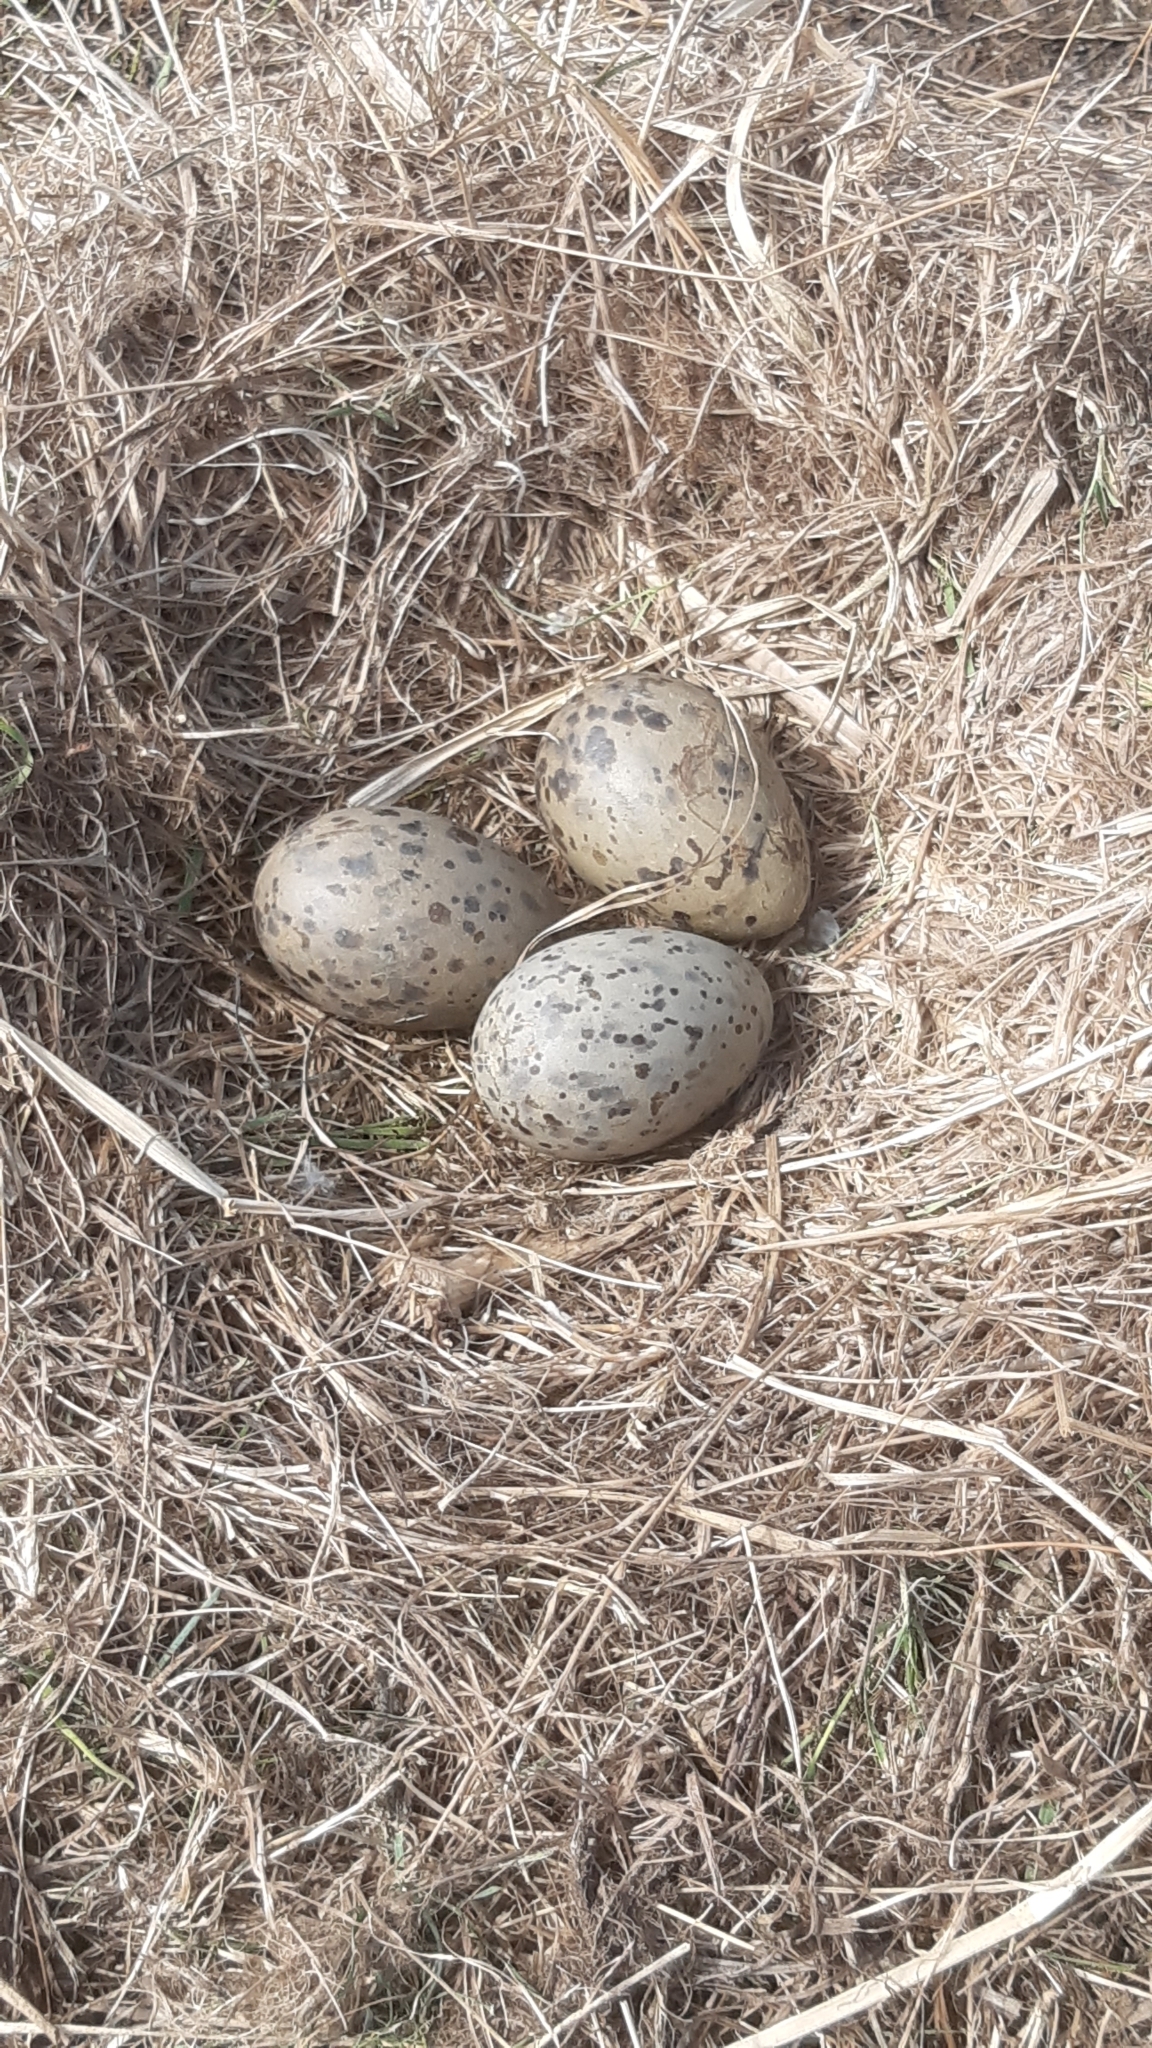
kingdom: Animalia
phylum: Chordata
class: Aves
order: Charadriiformes
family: Laridae
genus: Larus
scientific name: Larus dominicanus
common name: Kelp gull
